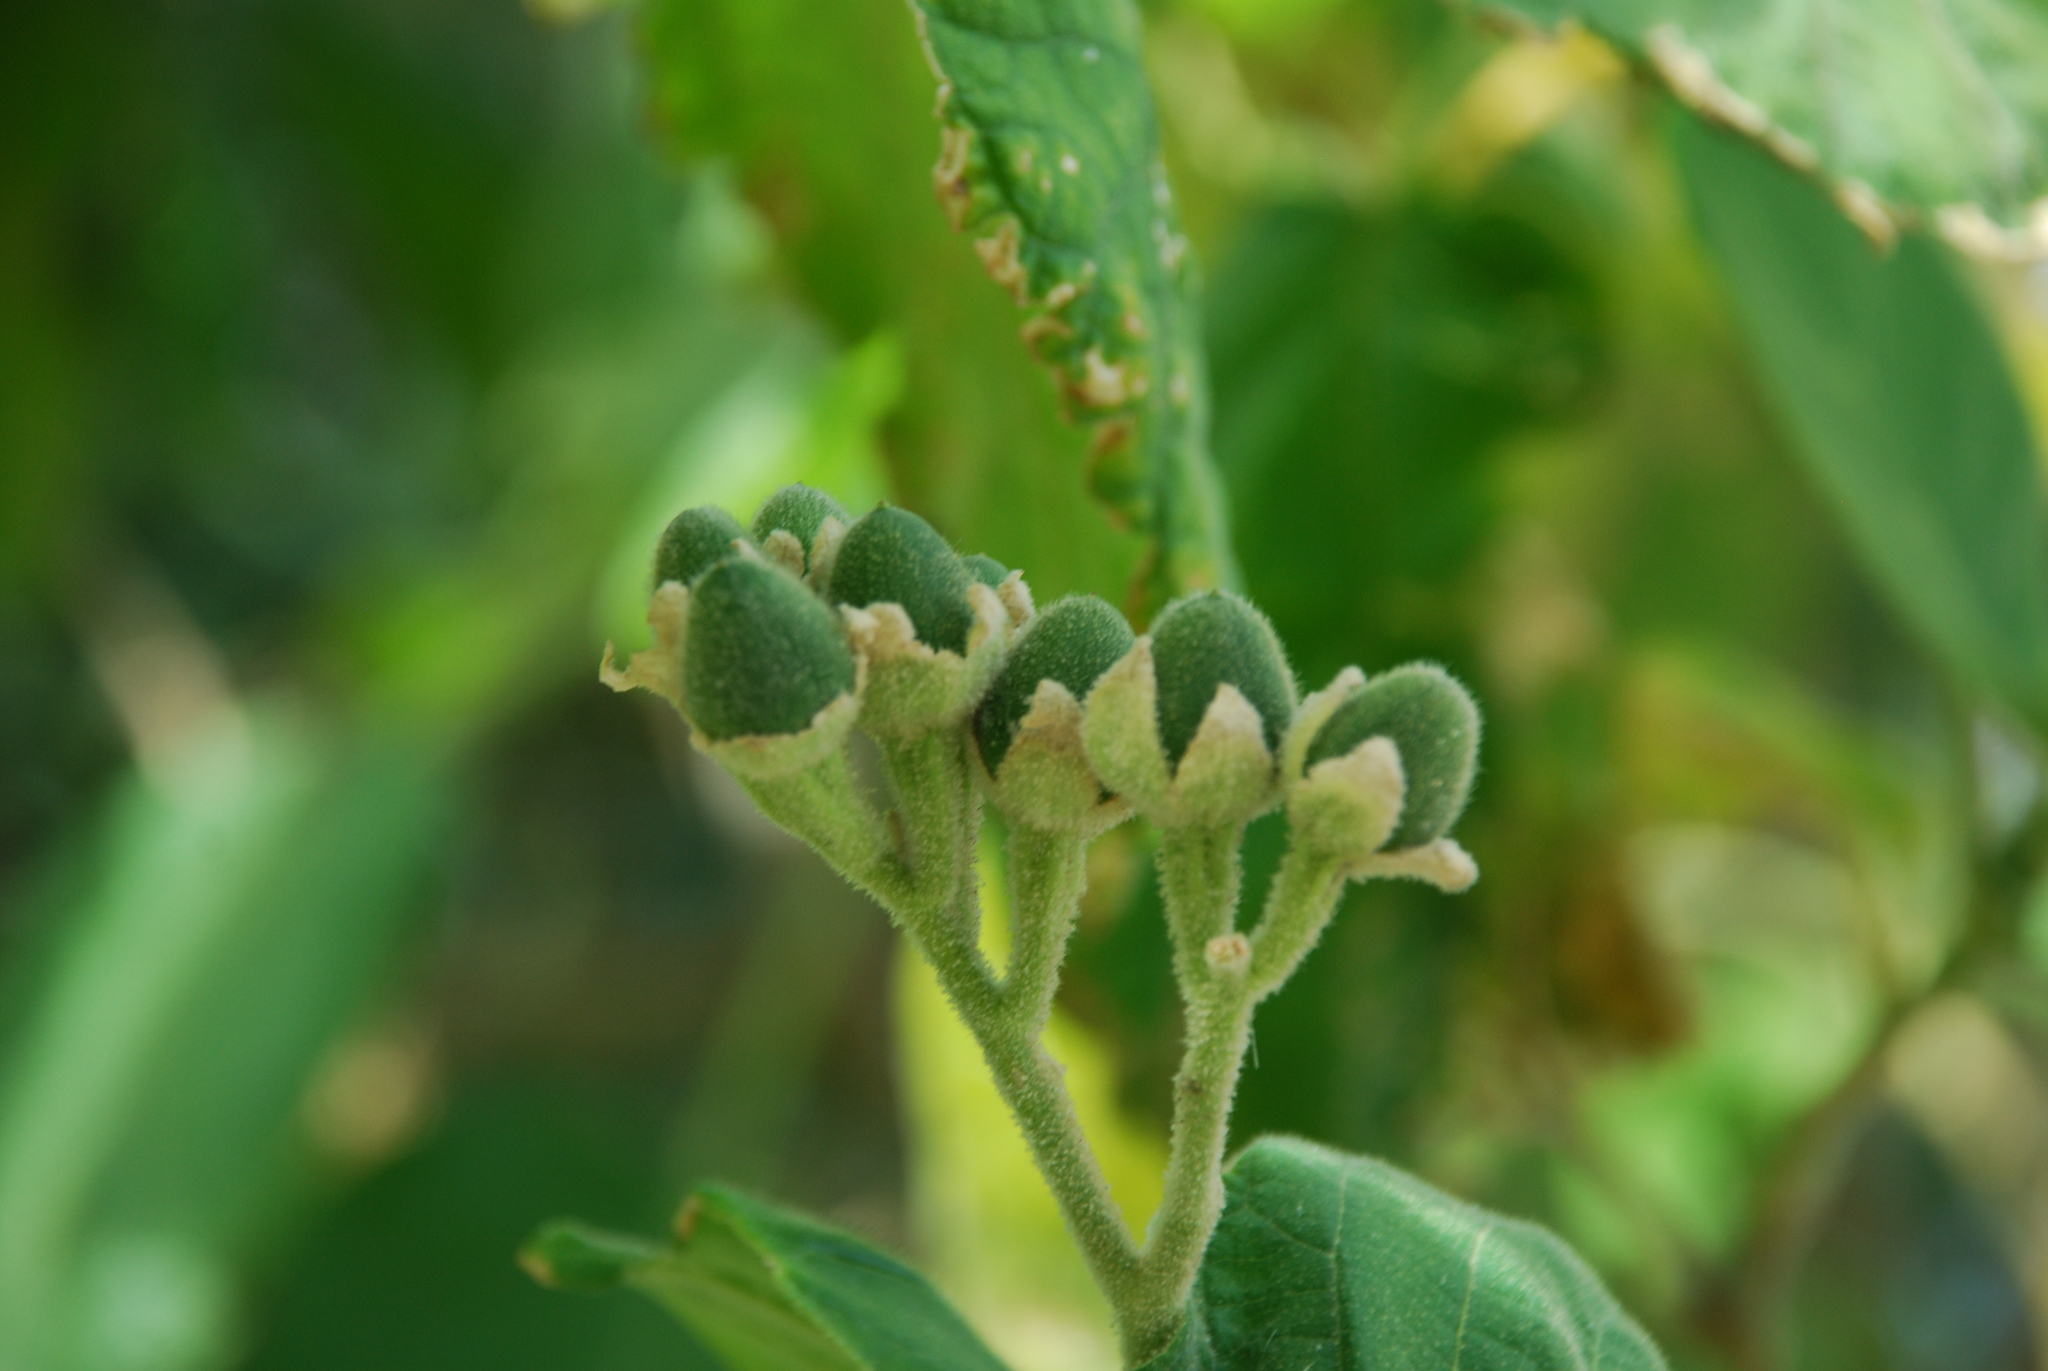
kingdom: Plantae
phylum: Tracheophyta
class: Magnoliopsida
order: Solanales
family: Solanaceae
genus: Solanum
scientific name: Solanum abutiloides
